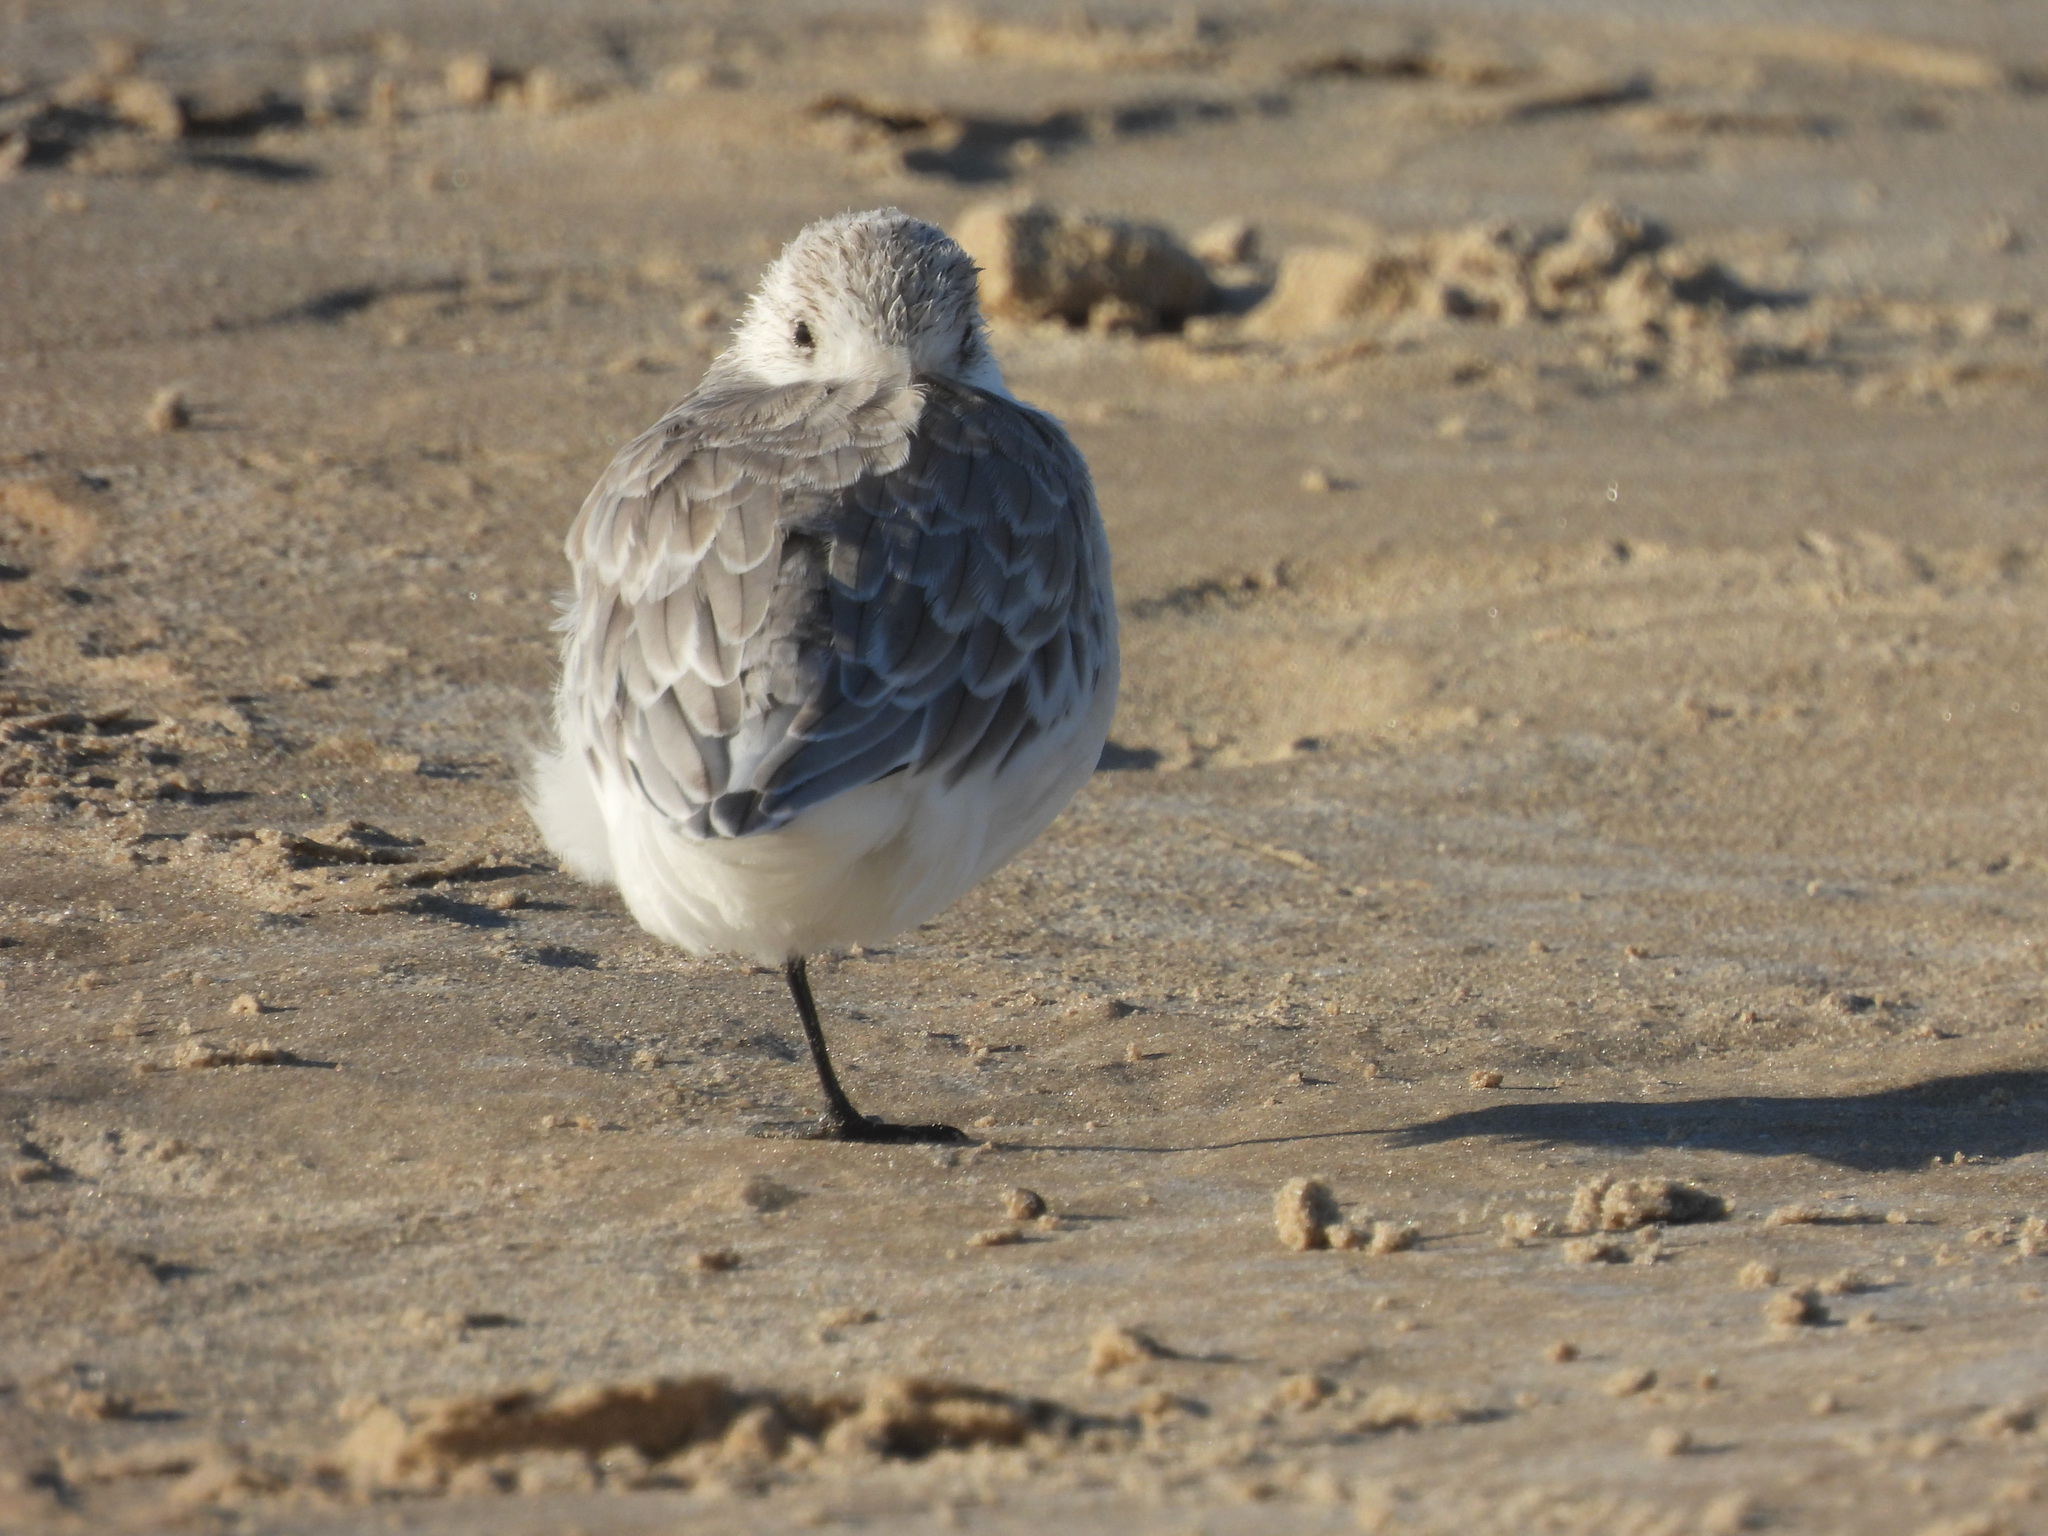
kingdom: Animalia
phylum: Chordata
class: Aves
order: Charadriiformes
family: Scolopacidae
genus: Calidris
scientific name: Calidris alba
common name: Sanderling
